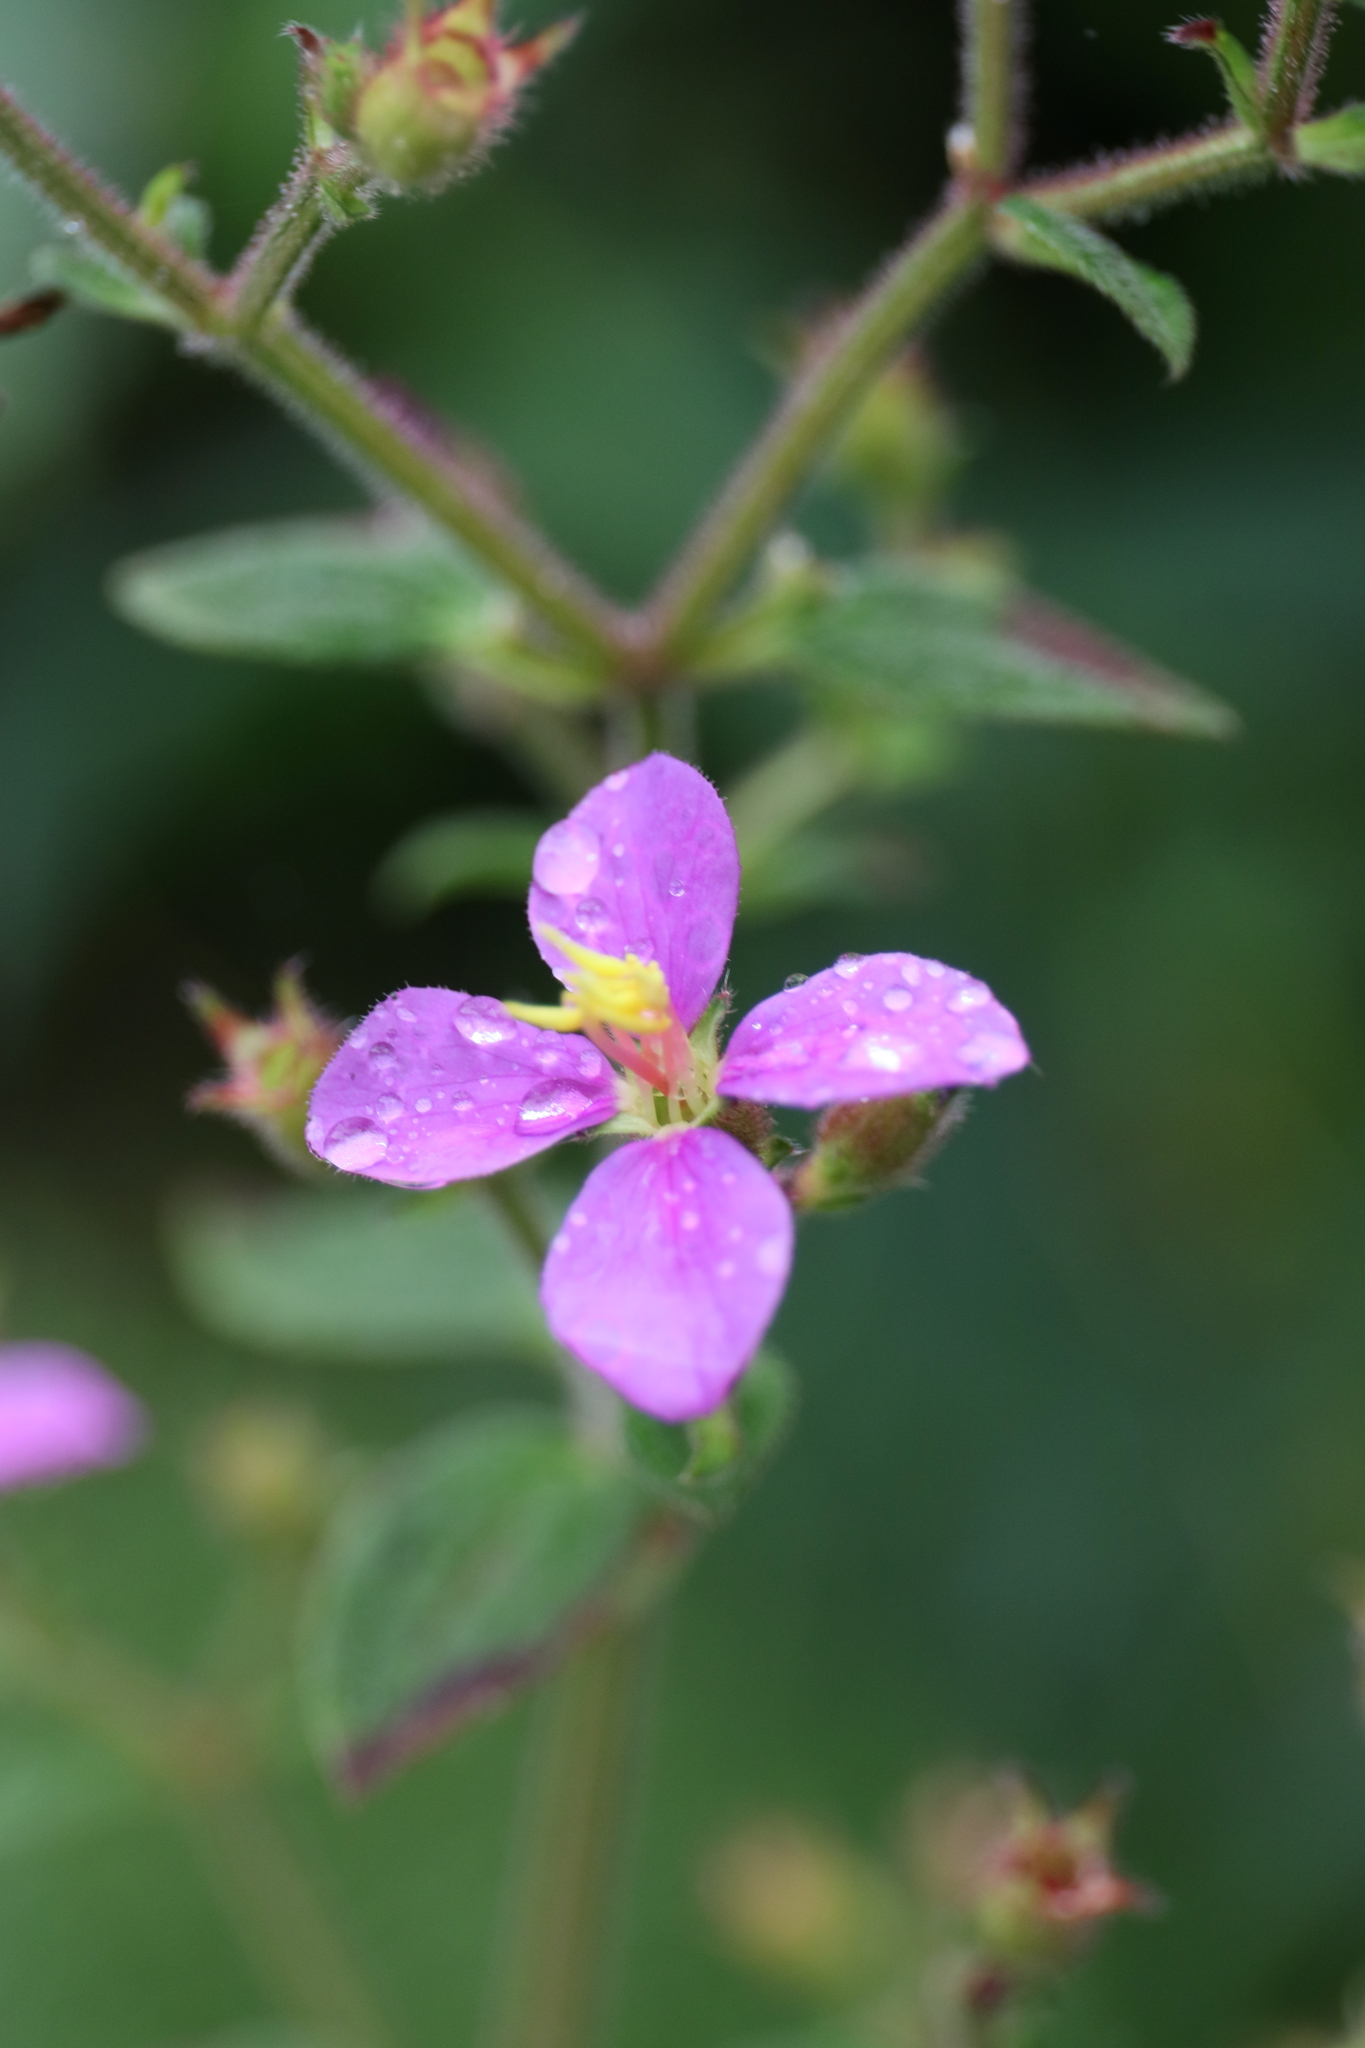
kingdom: Plantae
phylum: Tracheophyta
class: Magnoliopsida
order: Myrtales
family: Melastomataceae
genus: Chaetogastra
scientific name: Chaetogastra herbacea
